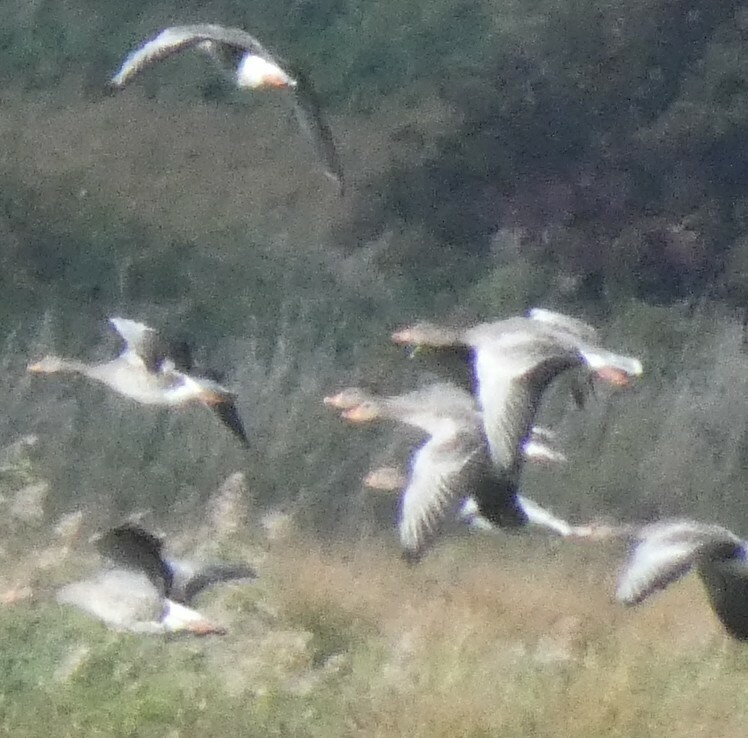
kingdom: Animalia
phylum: Chordata
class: Aves
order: Anseriformes
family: Anatidae
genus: Anser
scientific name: Anser anser
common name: Greylag goose
